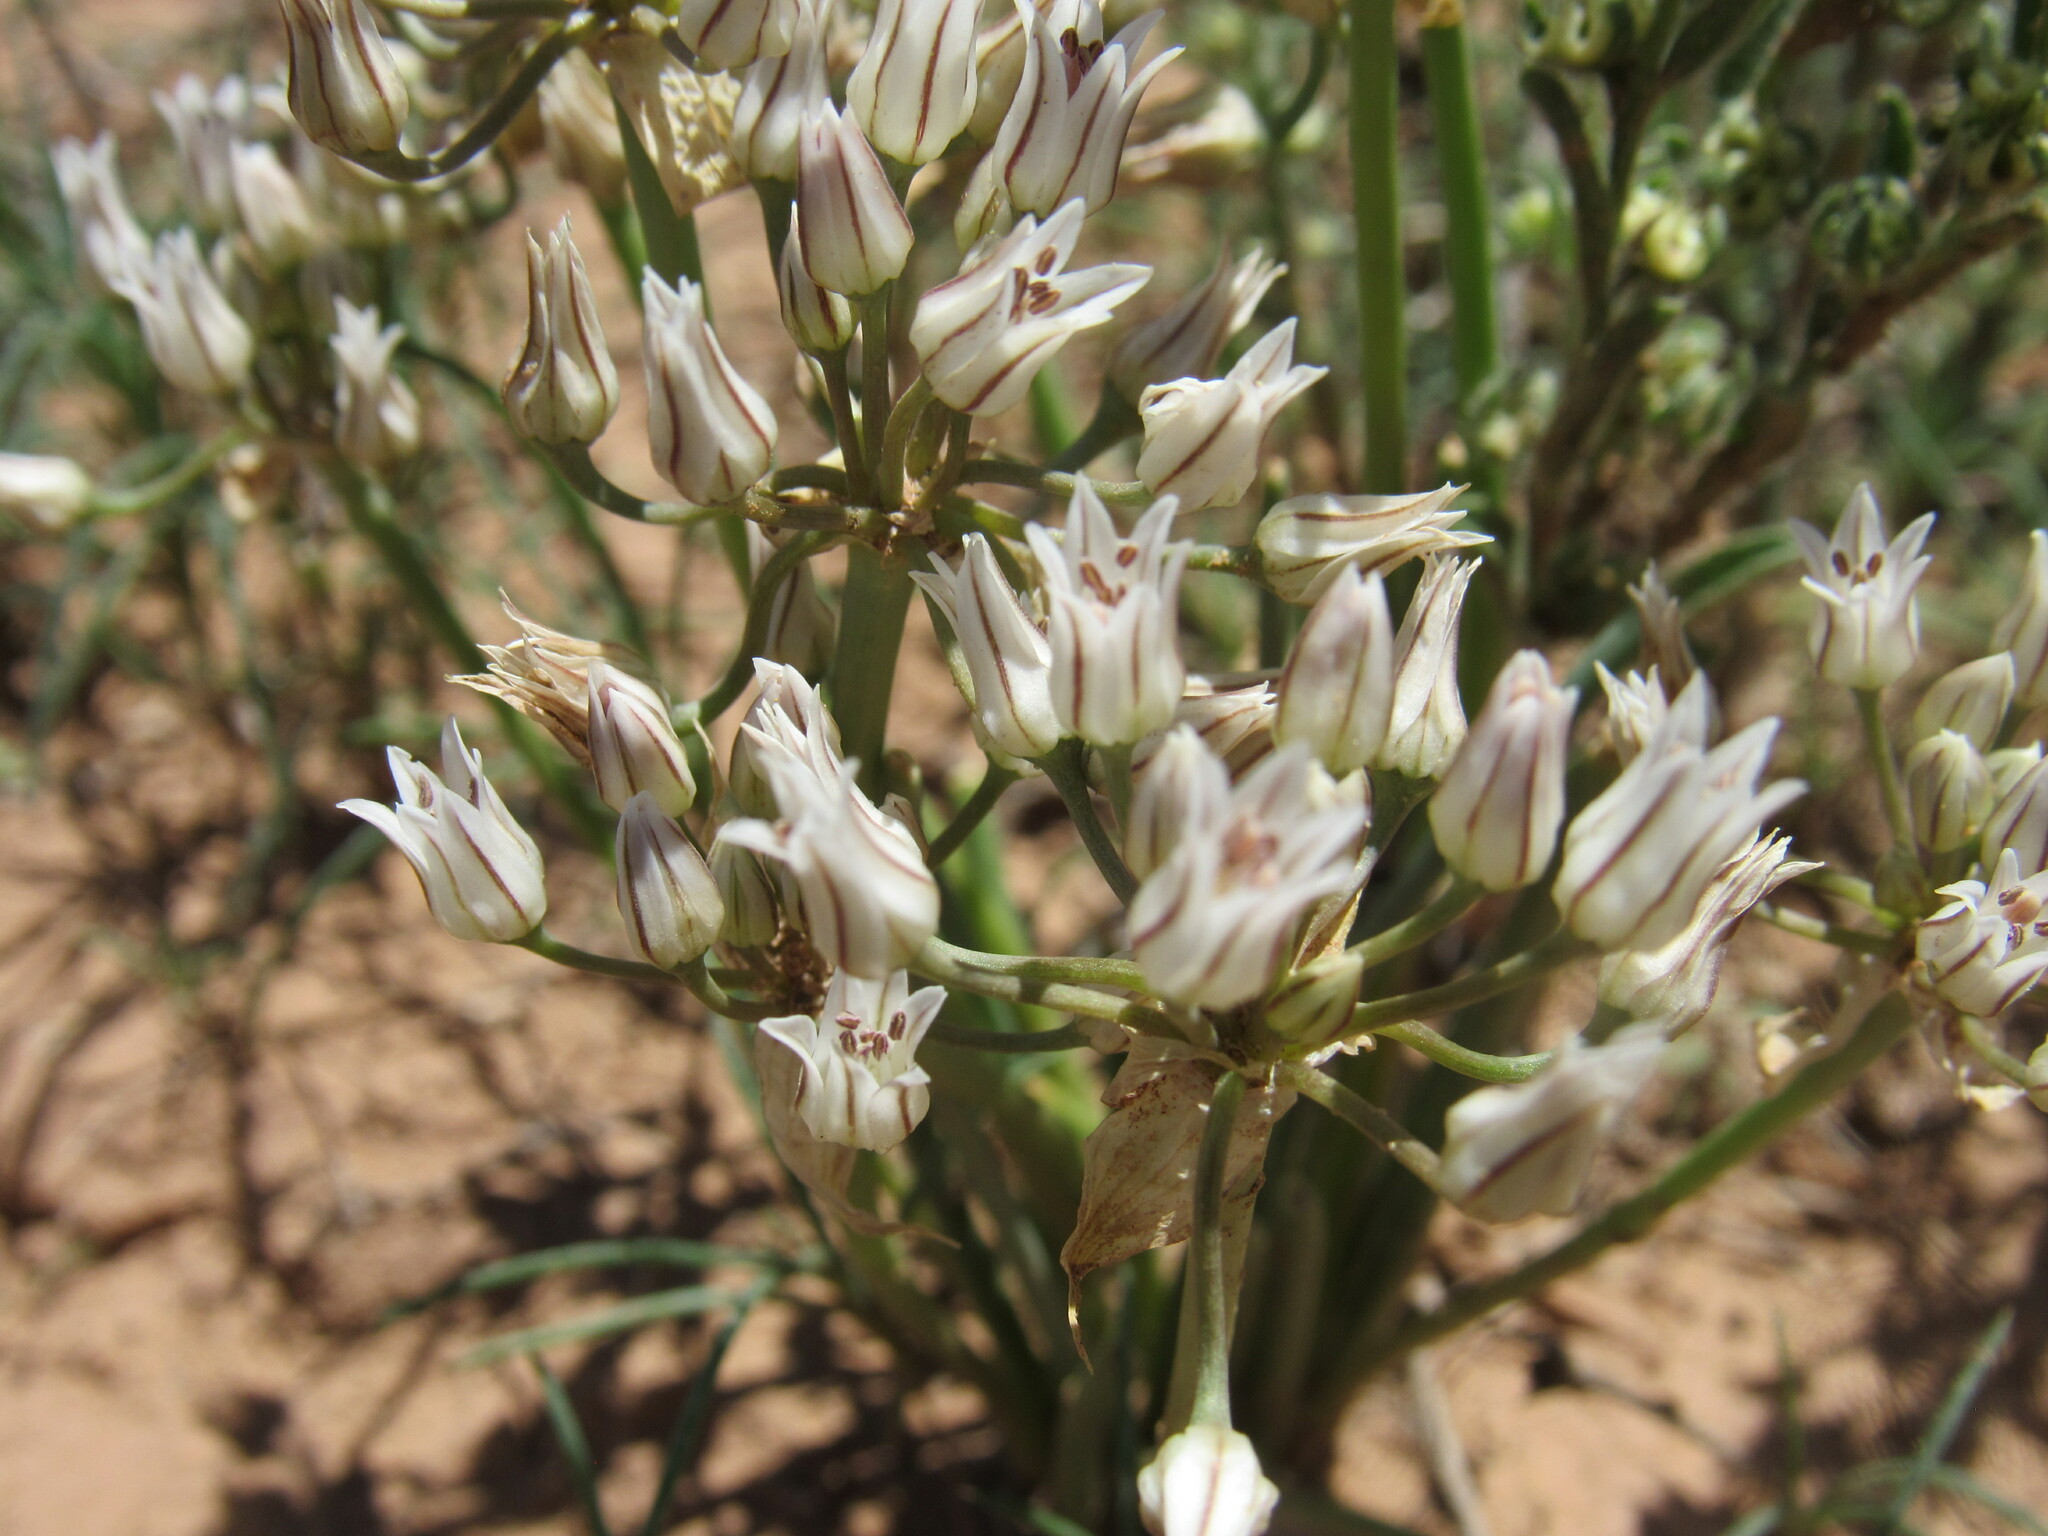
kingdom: Plantae
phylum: Tracheophyta
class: Liliopsida
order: Asparagales
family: Amaryllidaceae
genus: Allium
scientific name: Allium macropetalum
